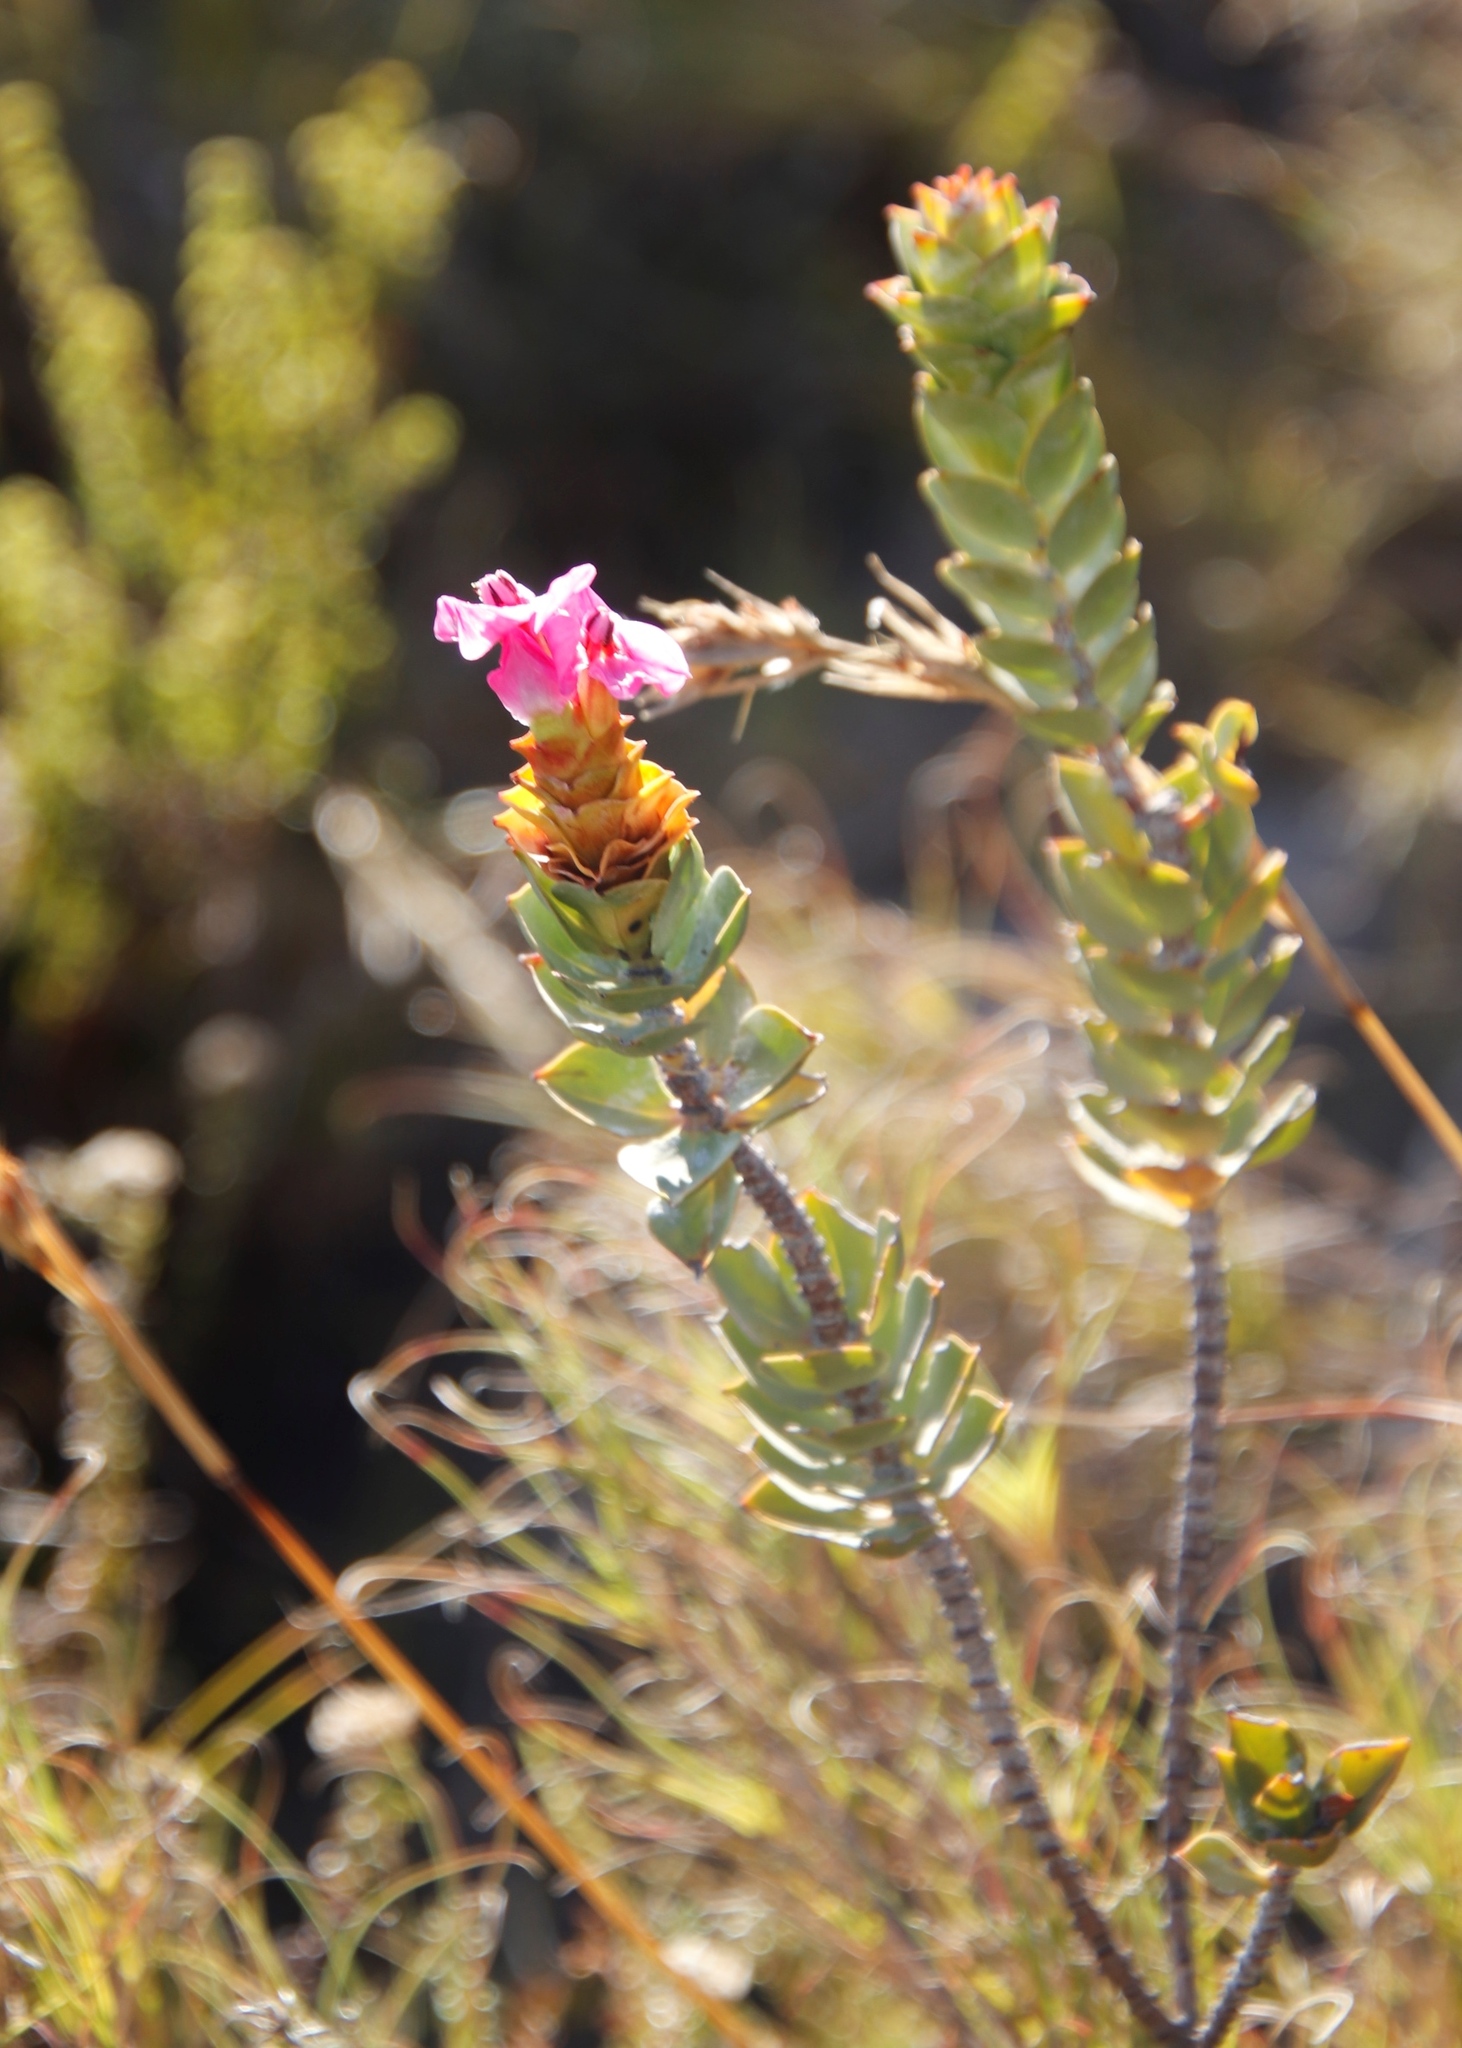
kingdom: Plantae
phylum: Tracheophyta
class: Magnoliopsida
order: Myrtales
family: Penaeaceae
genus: Saltera
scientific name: Saltera sarcocolla
